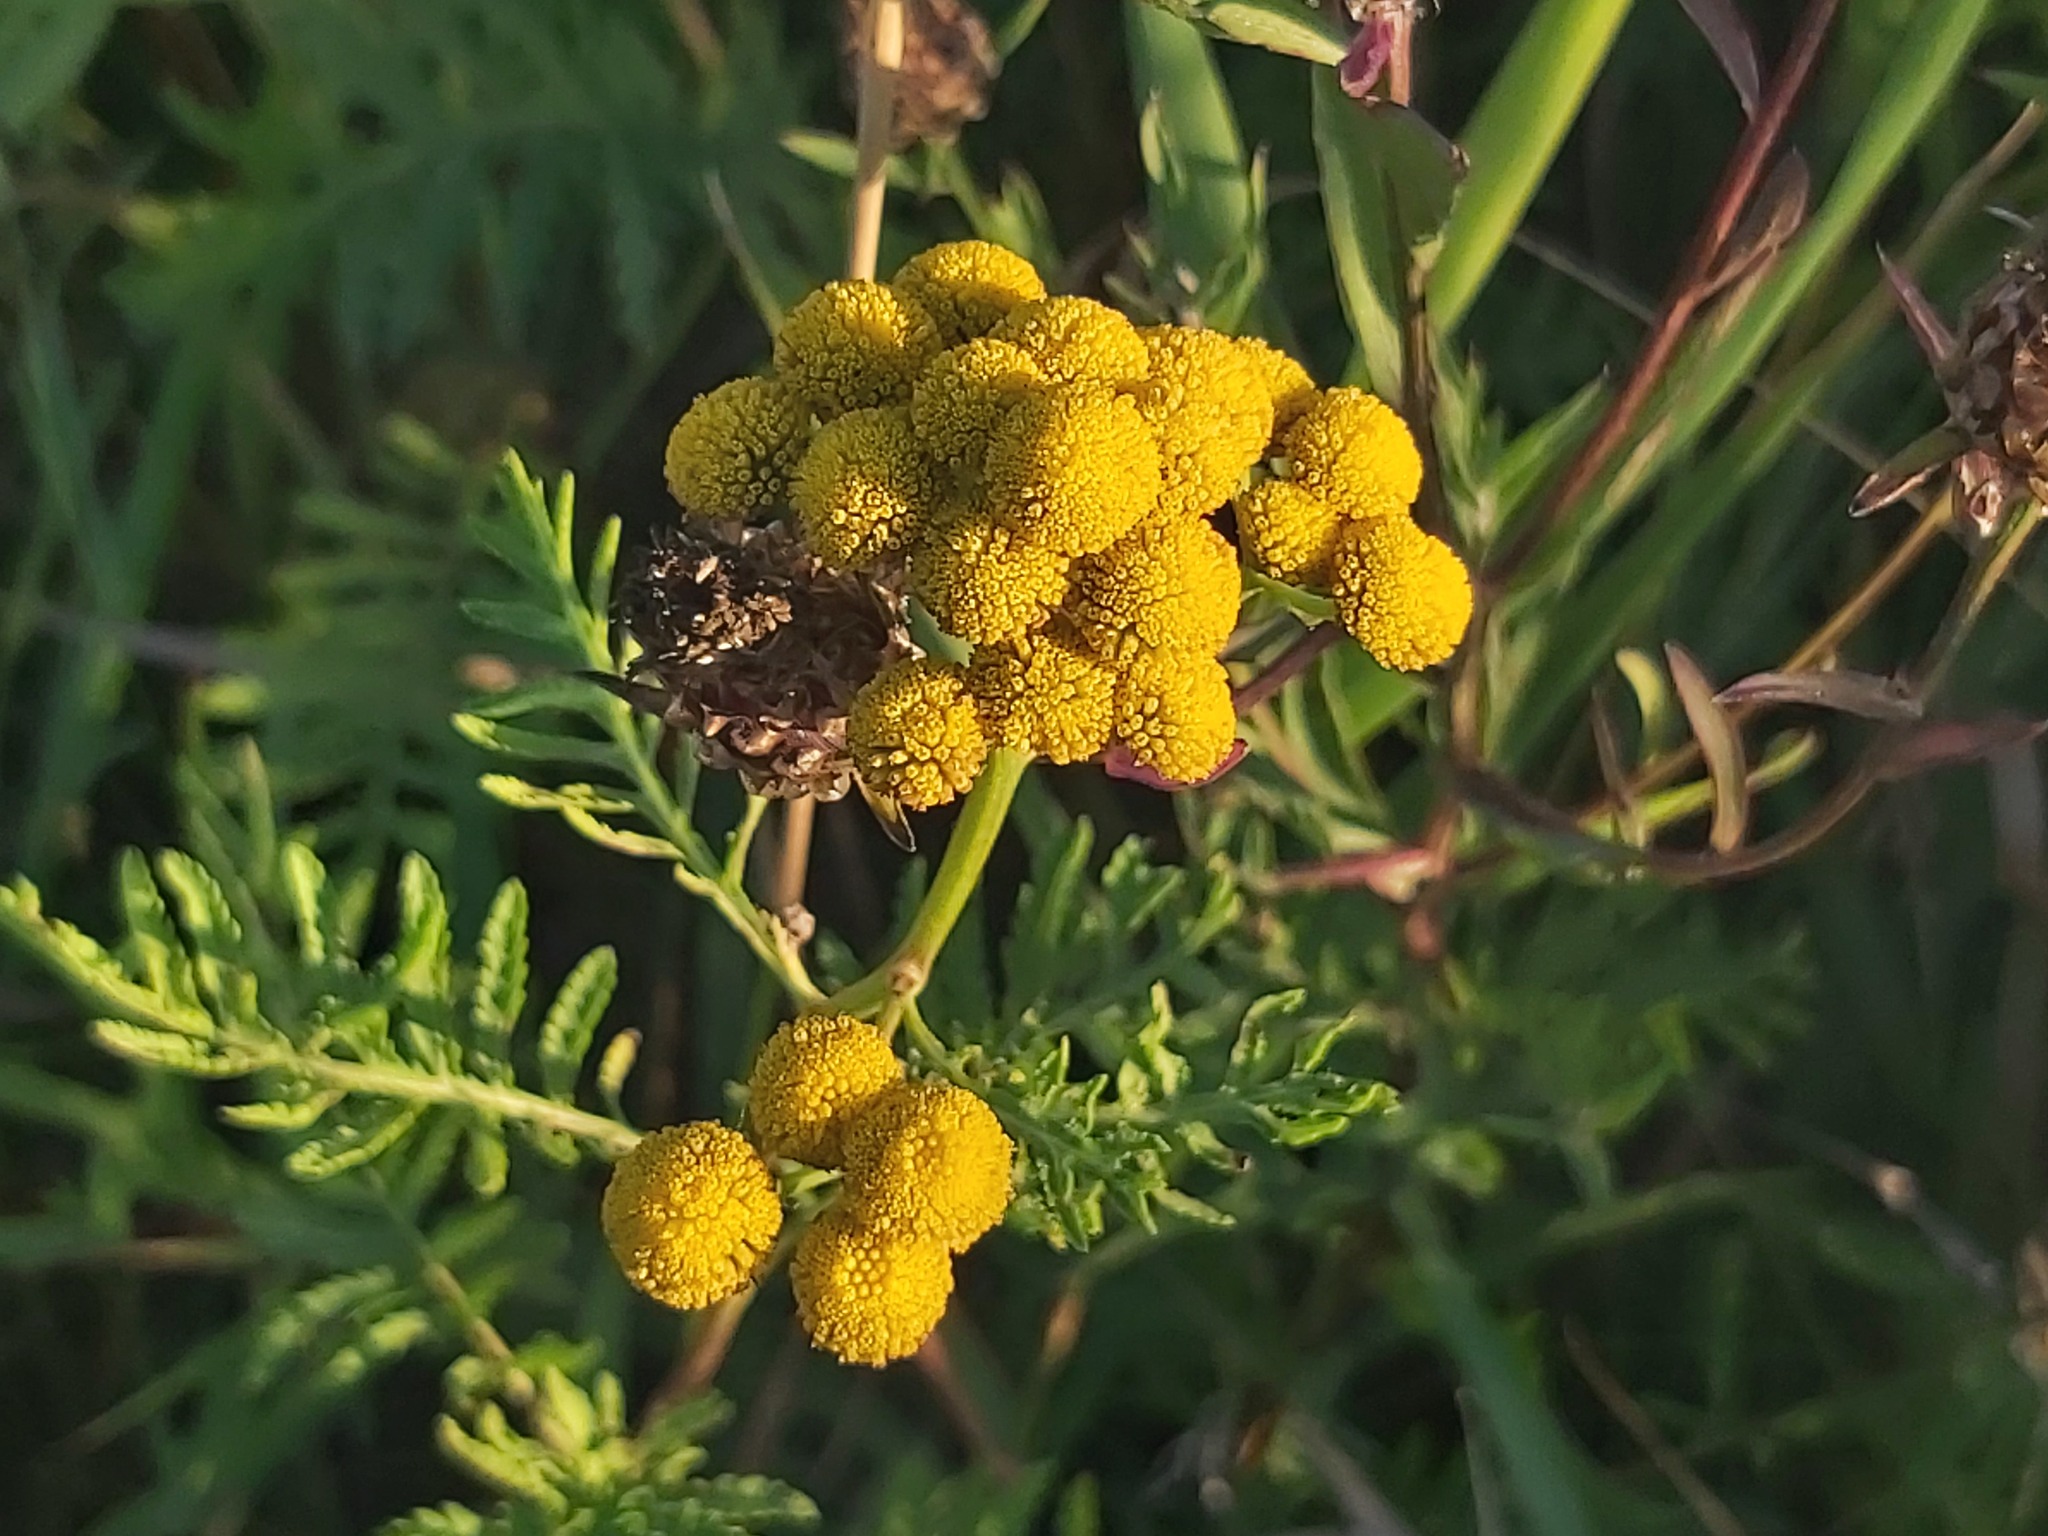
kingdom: Plantae
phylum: Tracheophyta
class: Magnoliopsida
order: Asterales
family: Asteraceae
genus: Tanacetum
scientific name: Tanacetum vulgare
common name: Common tansy
